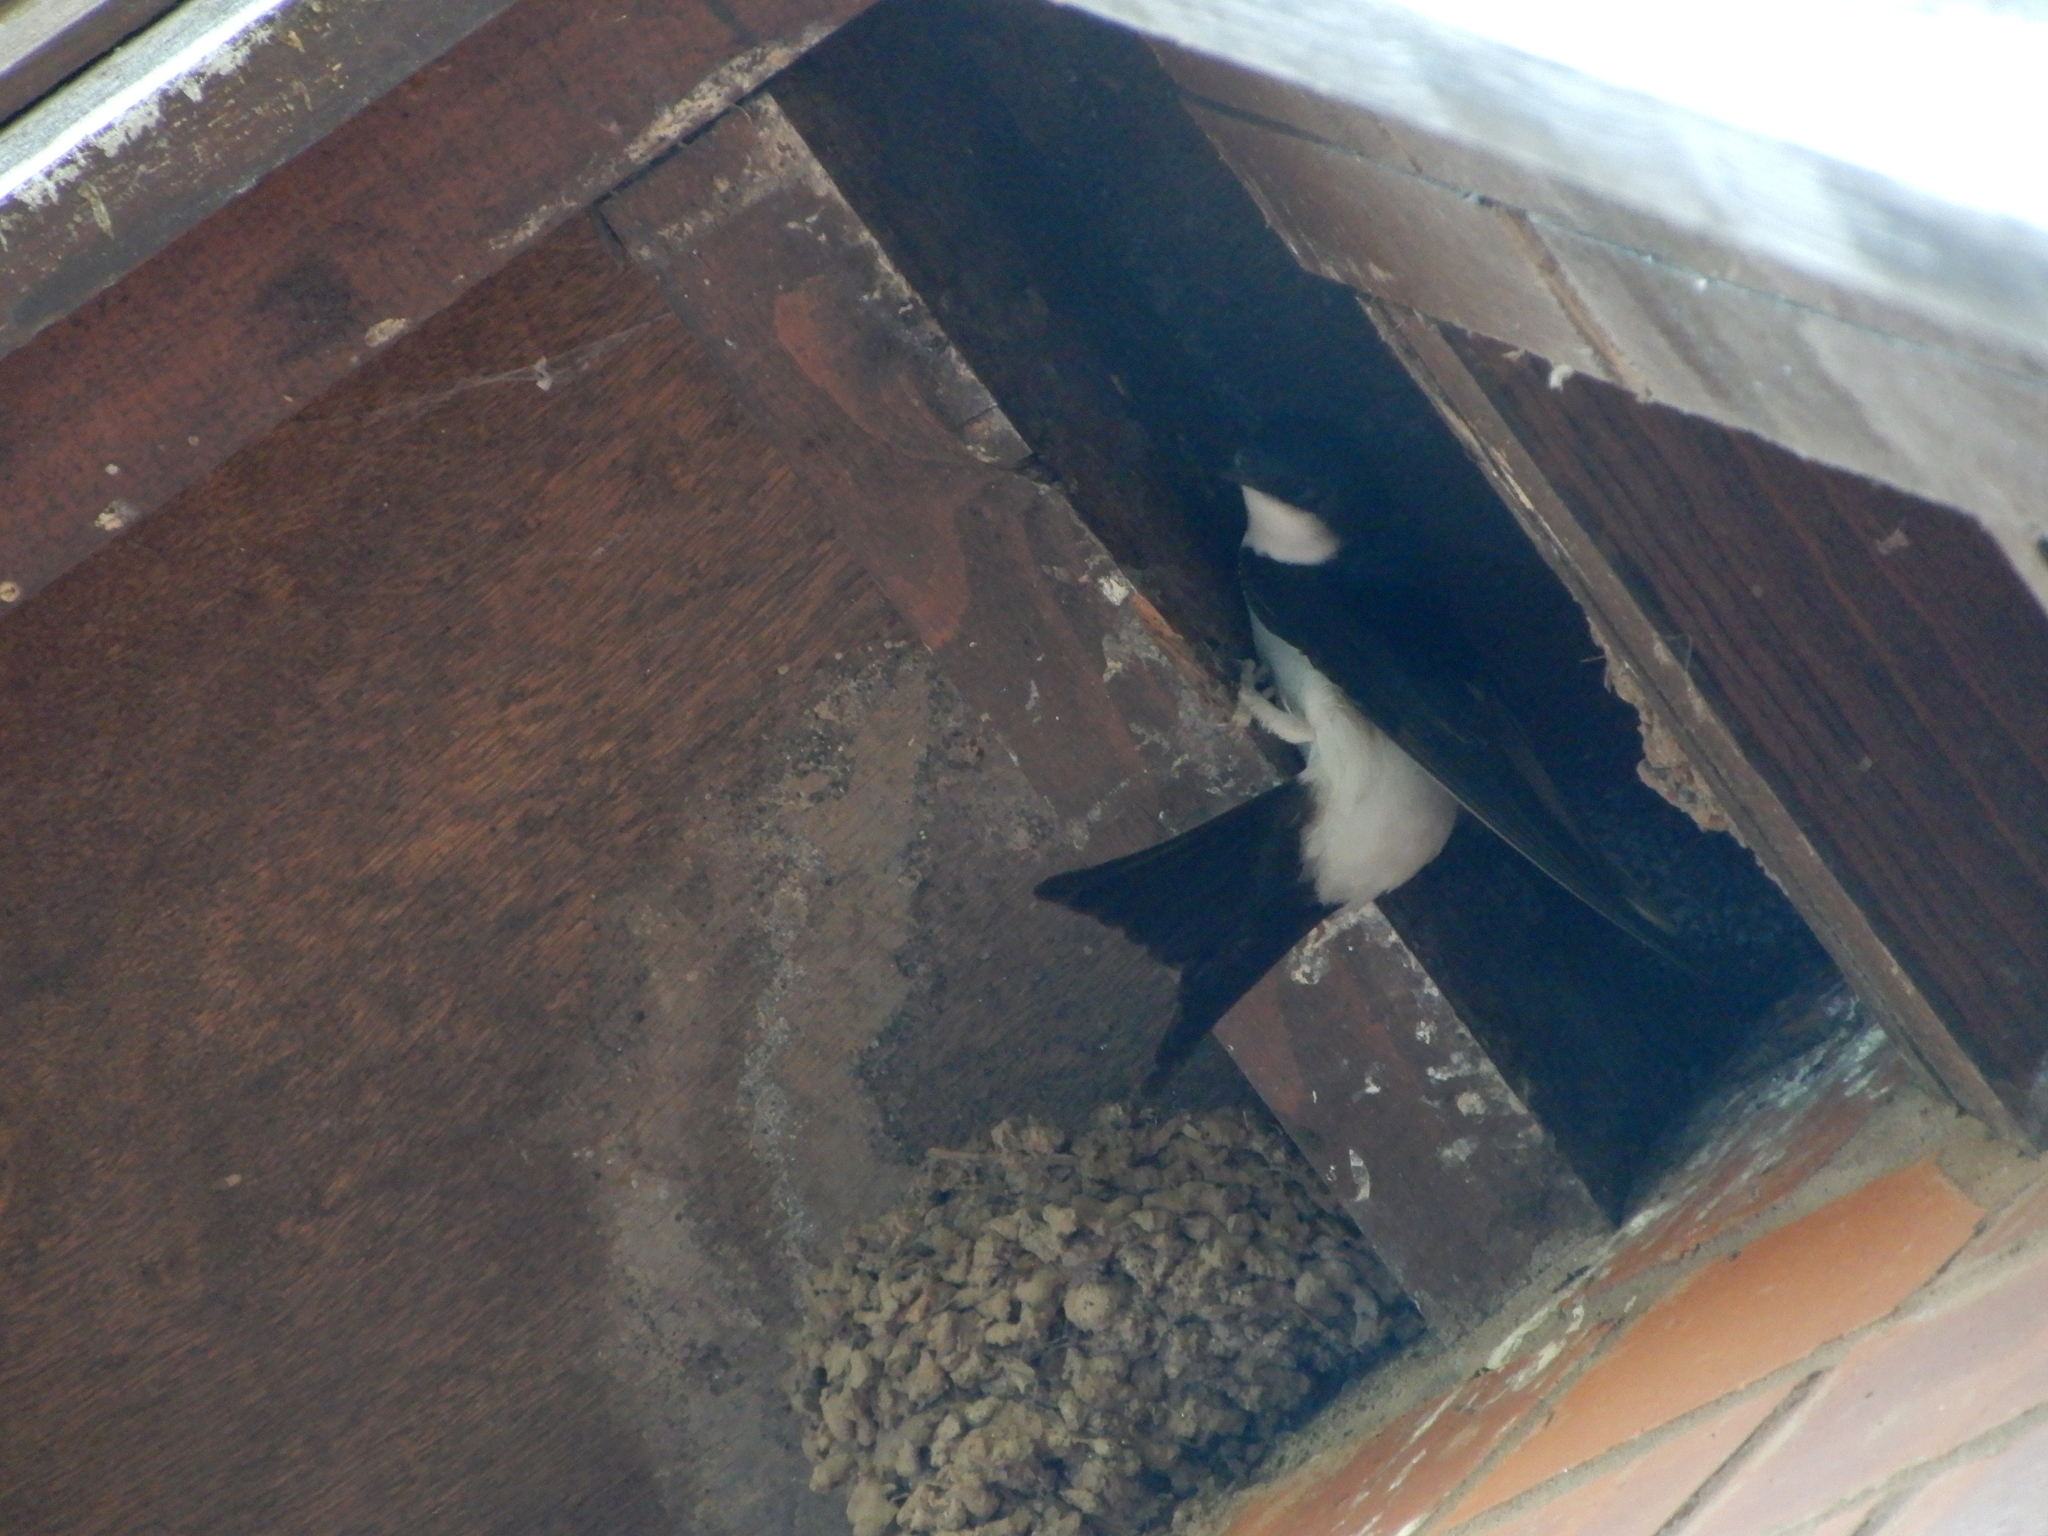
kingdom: Animalia
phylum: Chordata
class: Aves
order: Passeriformes
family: Hirundinidae
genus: Delichon
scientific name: Delichon urbicum
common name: Common house martin
